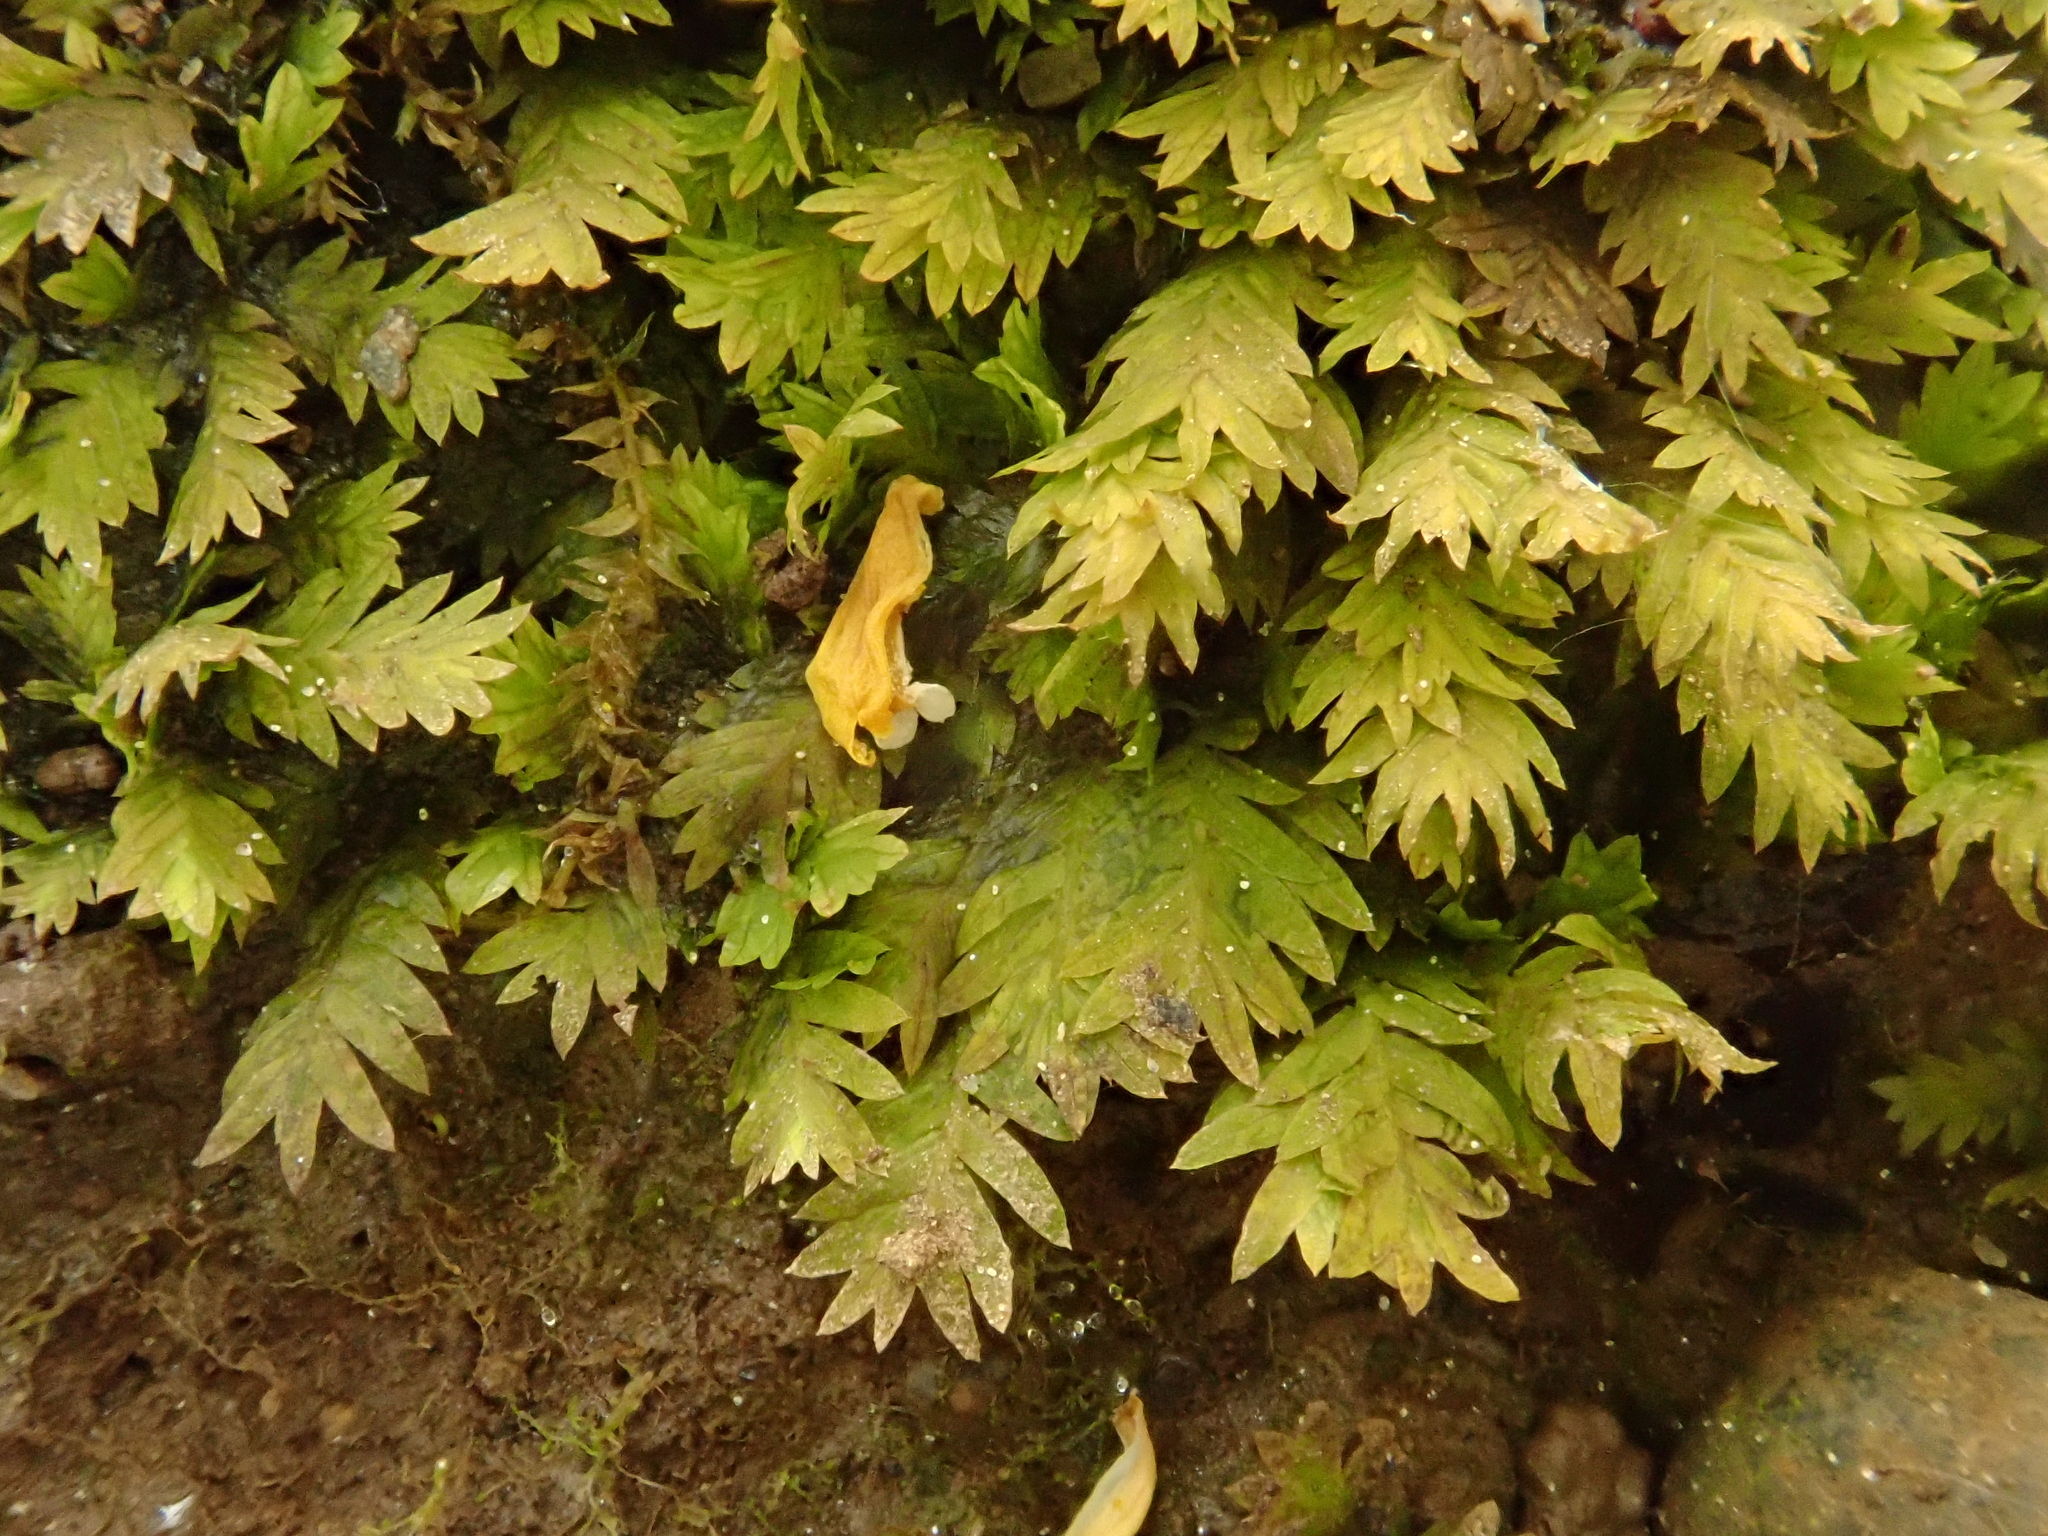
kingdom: Plantae
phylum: Bryophyta
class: Bryopsida
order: Dicranales
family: Fissidentaceae
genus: Fissidens
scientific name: Fissidens taxifolius
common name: Yew-leaved pocket moss
